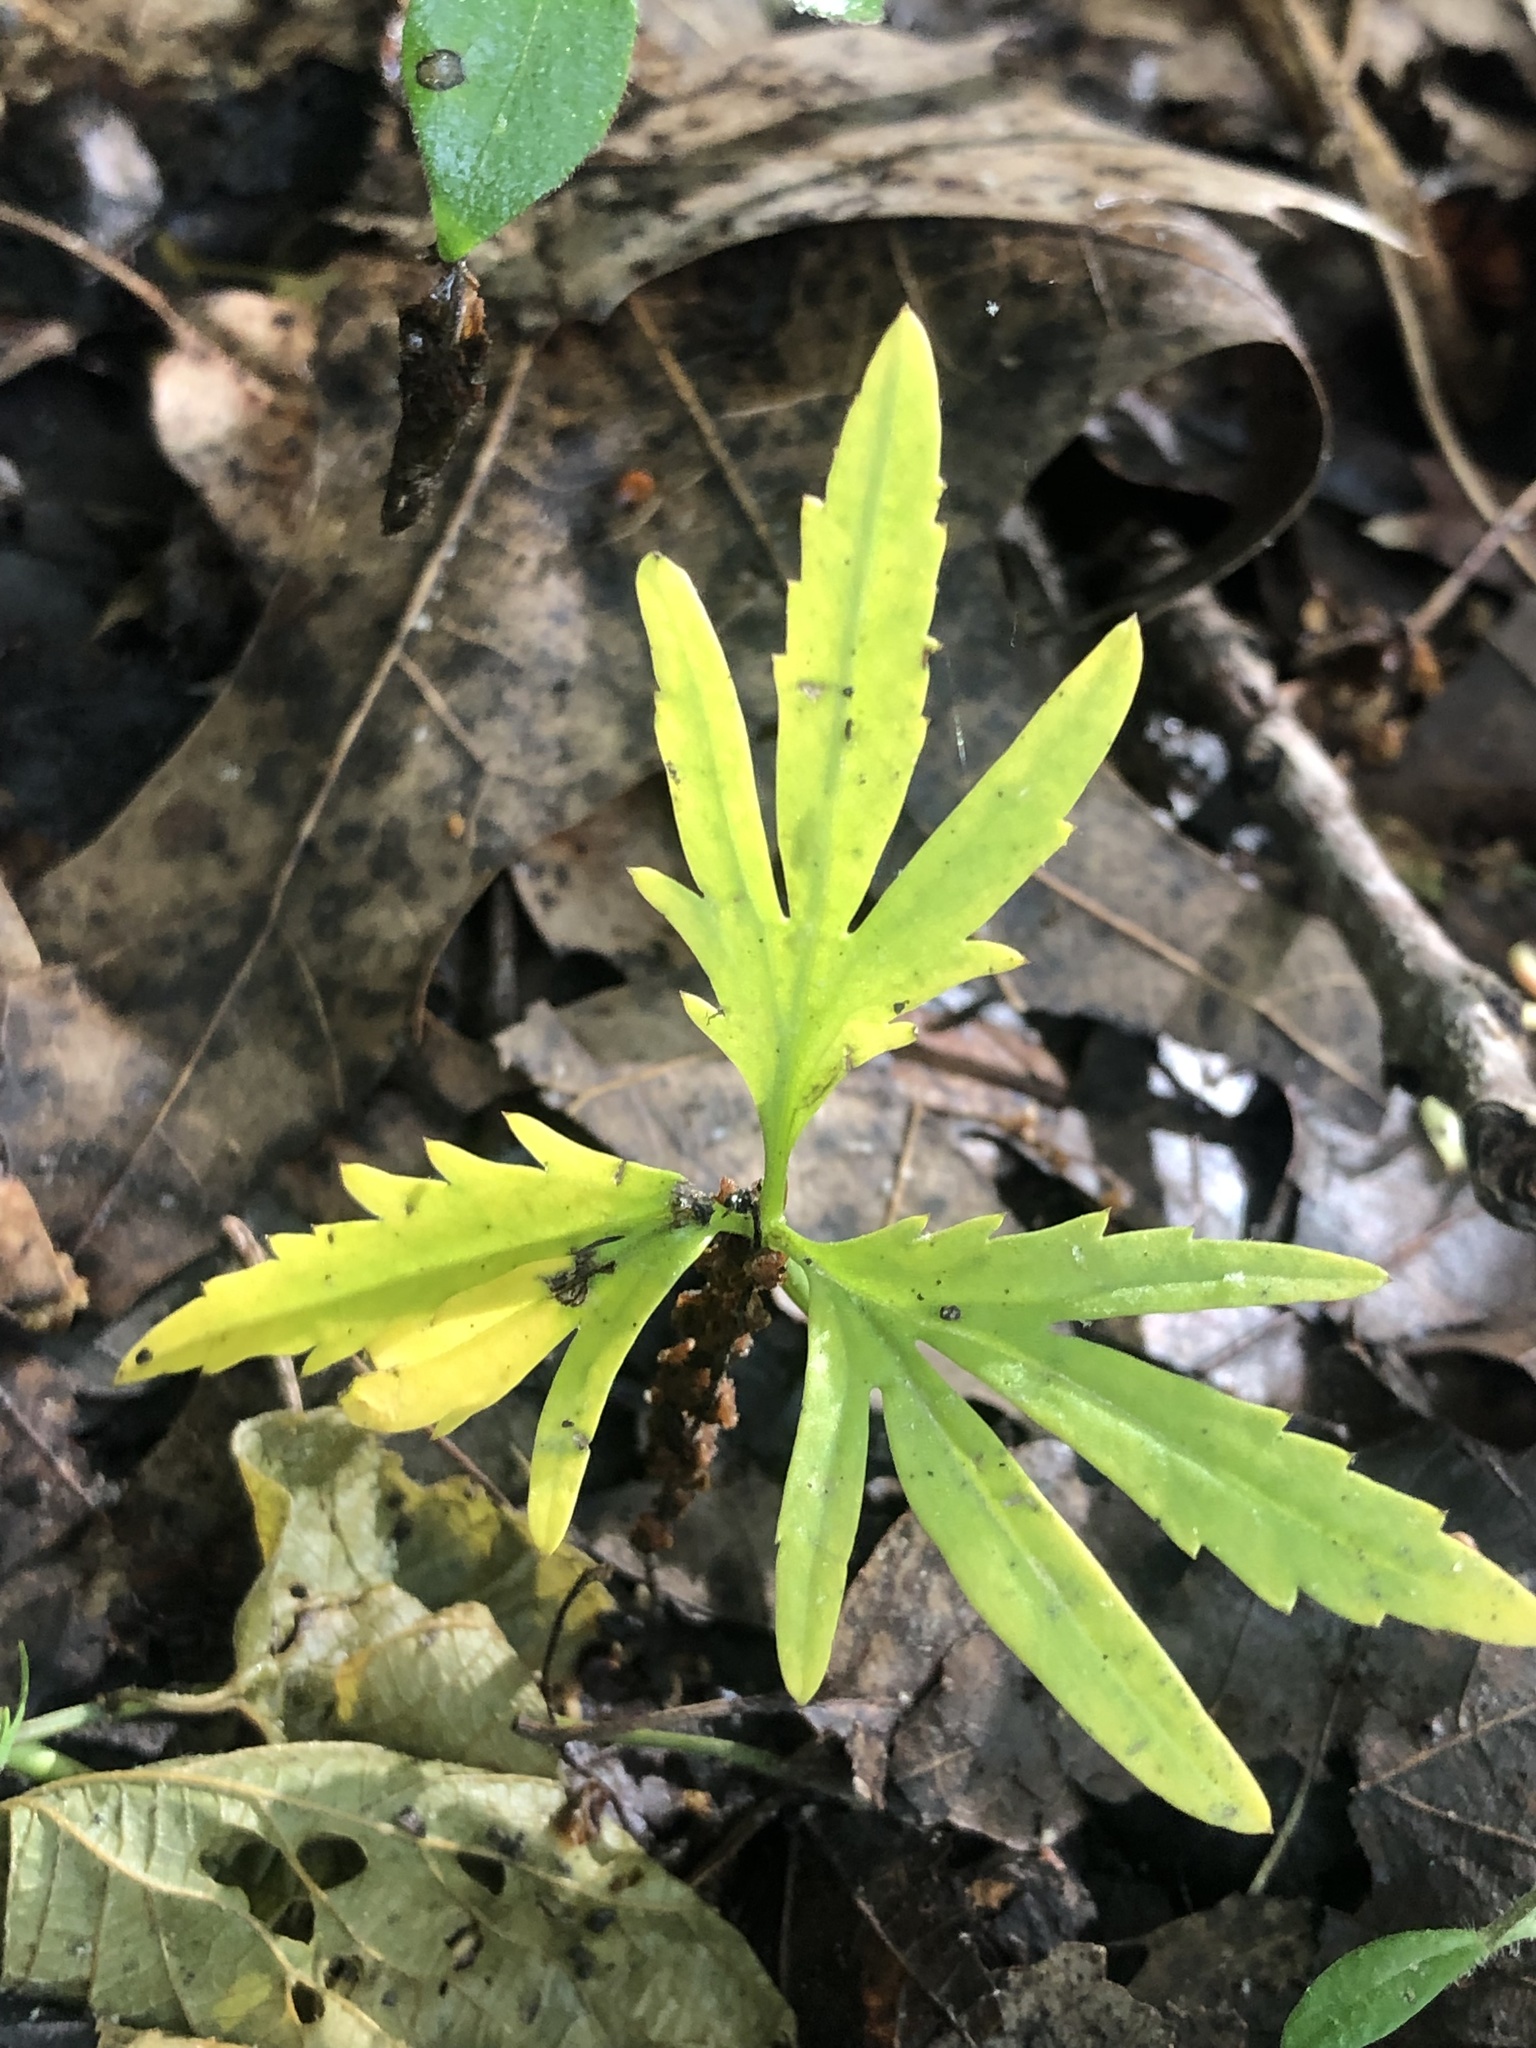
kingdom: Plantae
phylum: Tracheophyta
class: Magnoliopsida
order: Brassicales
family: Brassicaceae
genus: Cardamine
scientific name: Cardamine concatenata
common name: Cut-leaf toothcup
